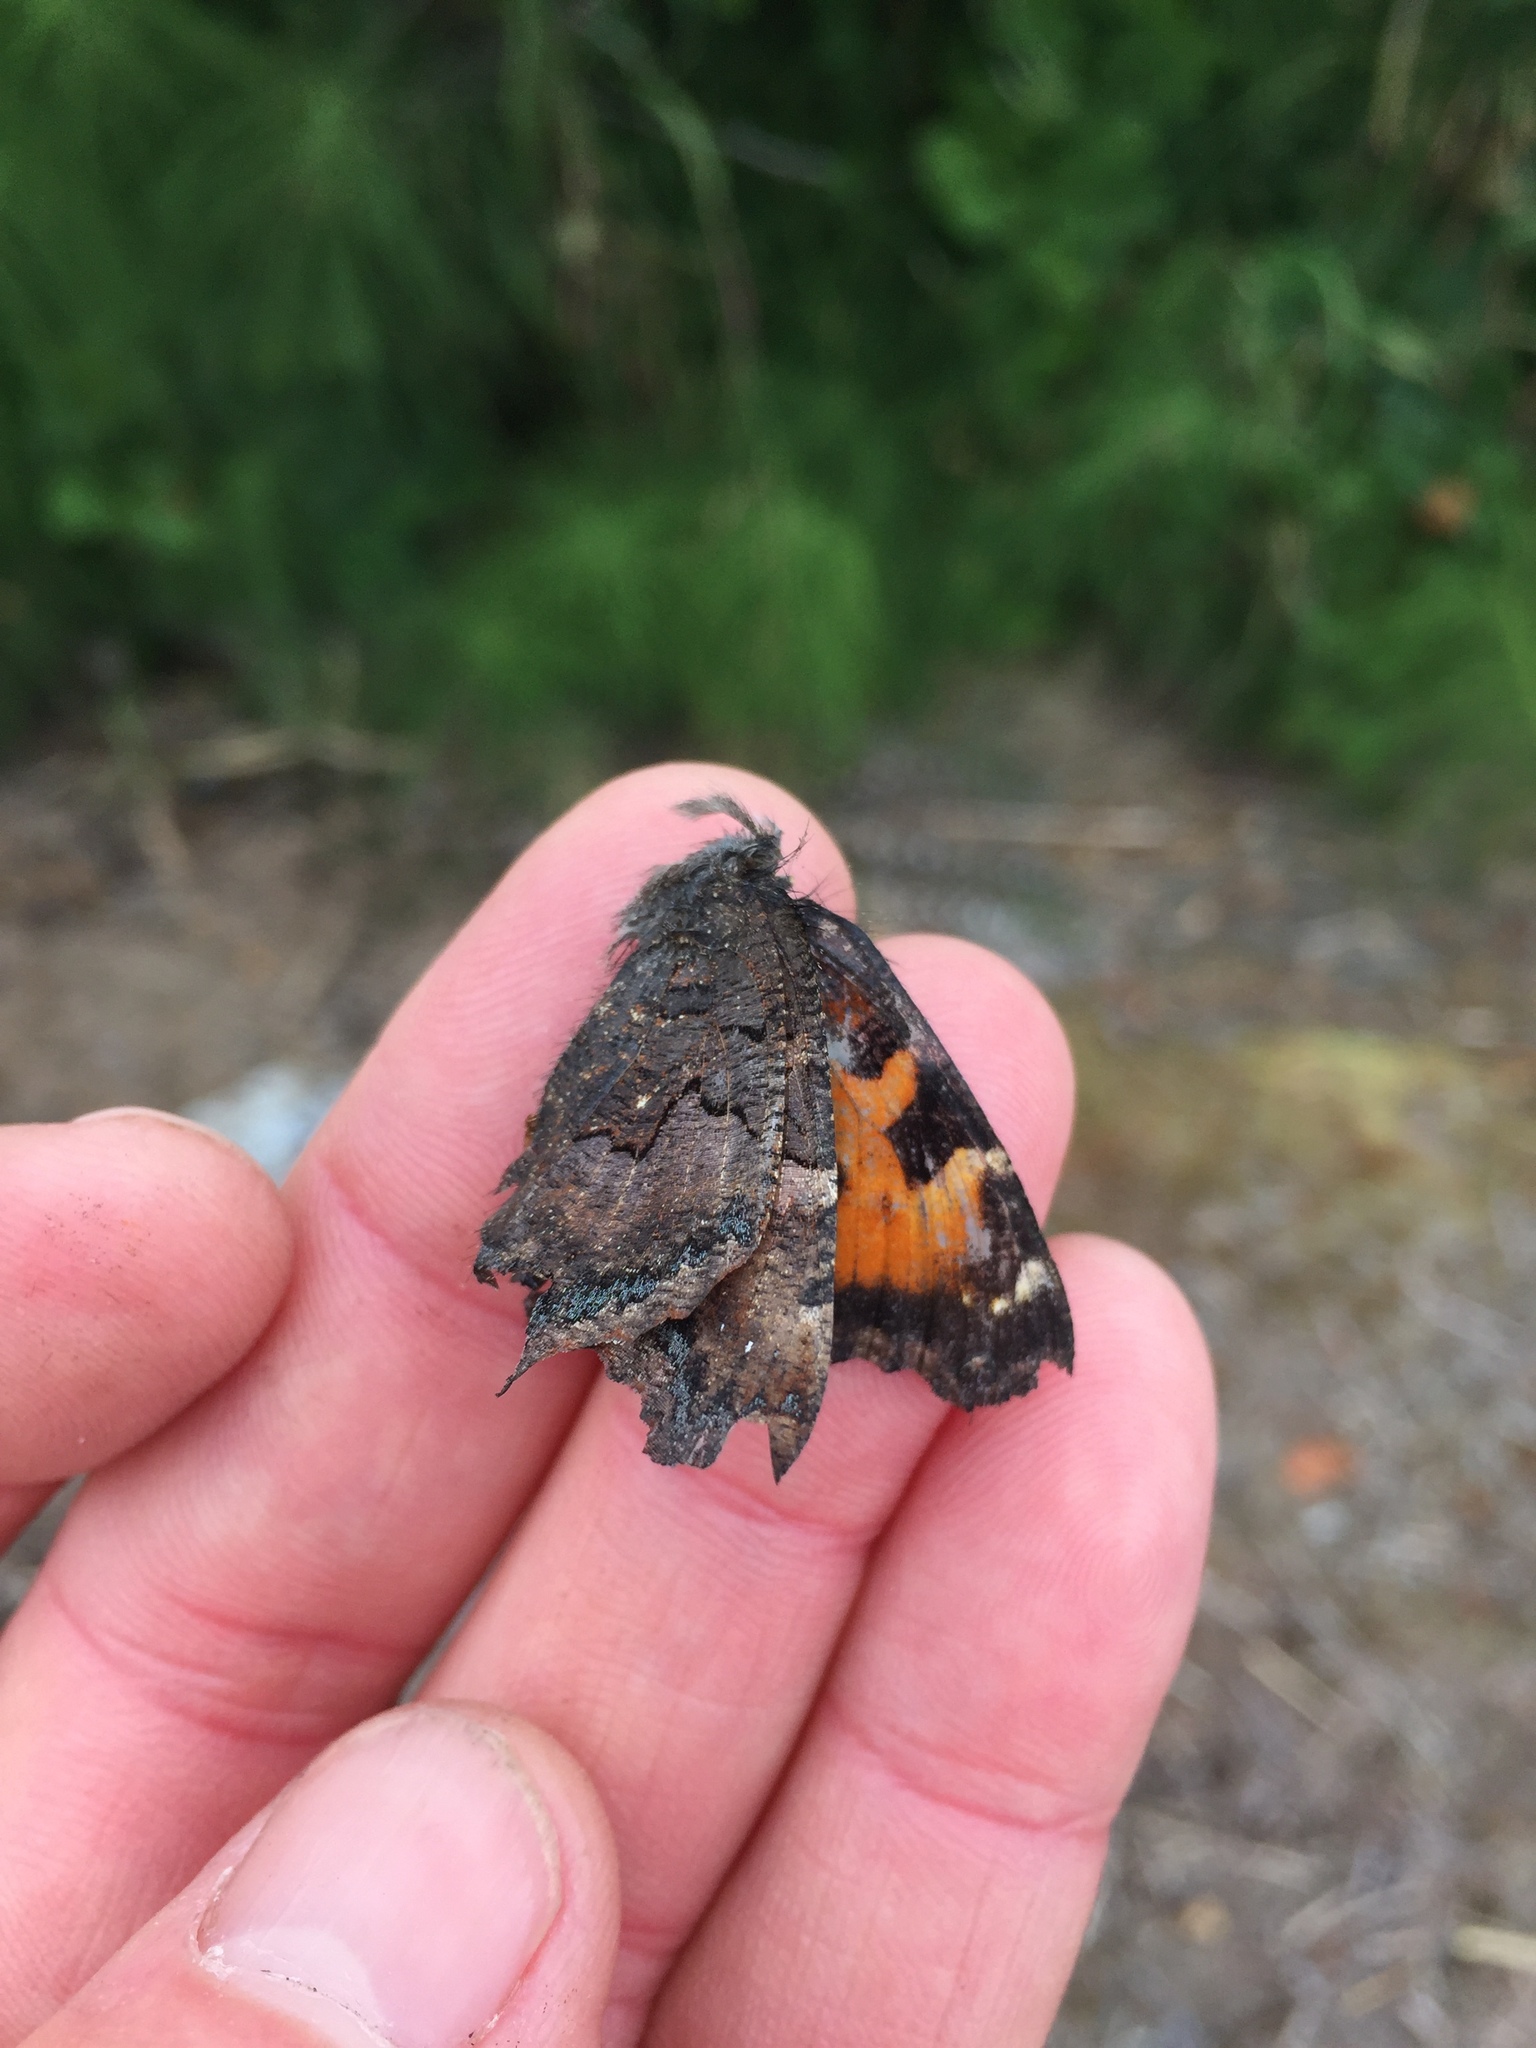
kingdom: Animalia
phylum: Arthropoda
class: Insecta
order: Lepidoptera
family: Nymphalidae
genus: Nymphalis
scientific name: Nymphalis californica
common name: California tortoiseshell
